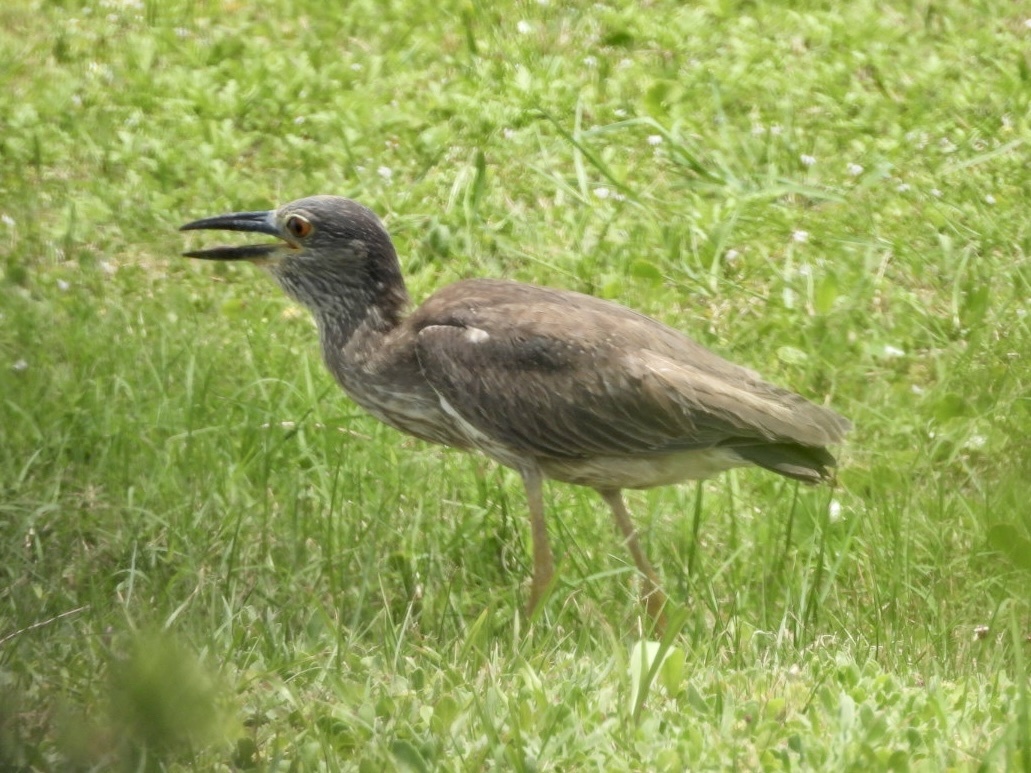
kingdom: Animalia
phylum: Chordata
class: Aves
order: Pelecaniformes
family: Ardeidae
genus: Nyctanassa
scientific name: Nyctanassa violacea
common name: Yellow-crowned night heron
